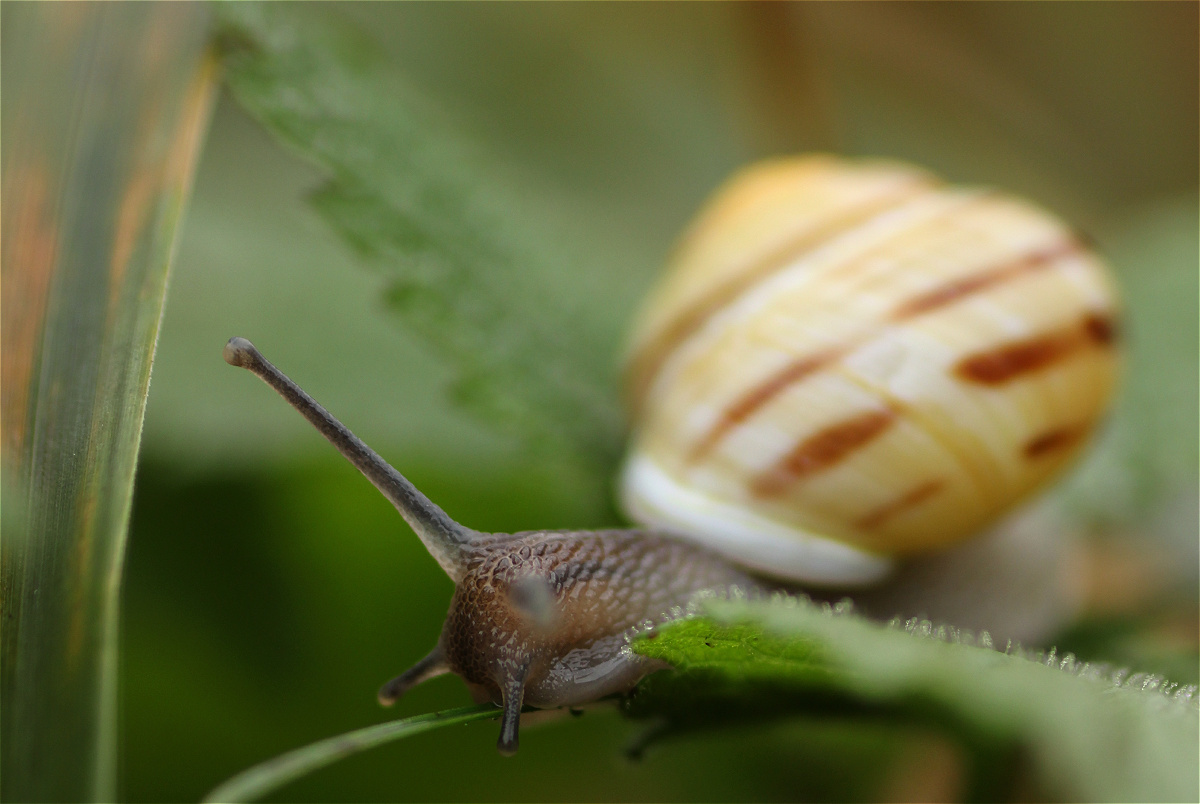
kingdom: Animalia
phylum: Mollusca
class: Gastropoda
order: Stylommatophora
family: Helicidae
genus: Cepaea
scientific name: Cepaea hortensis
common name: White-lip gardensnail
